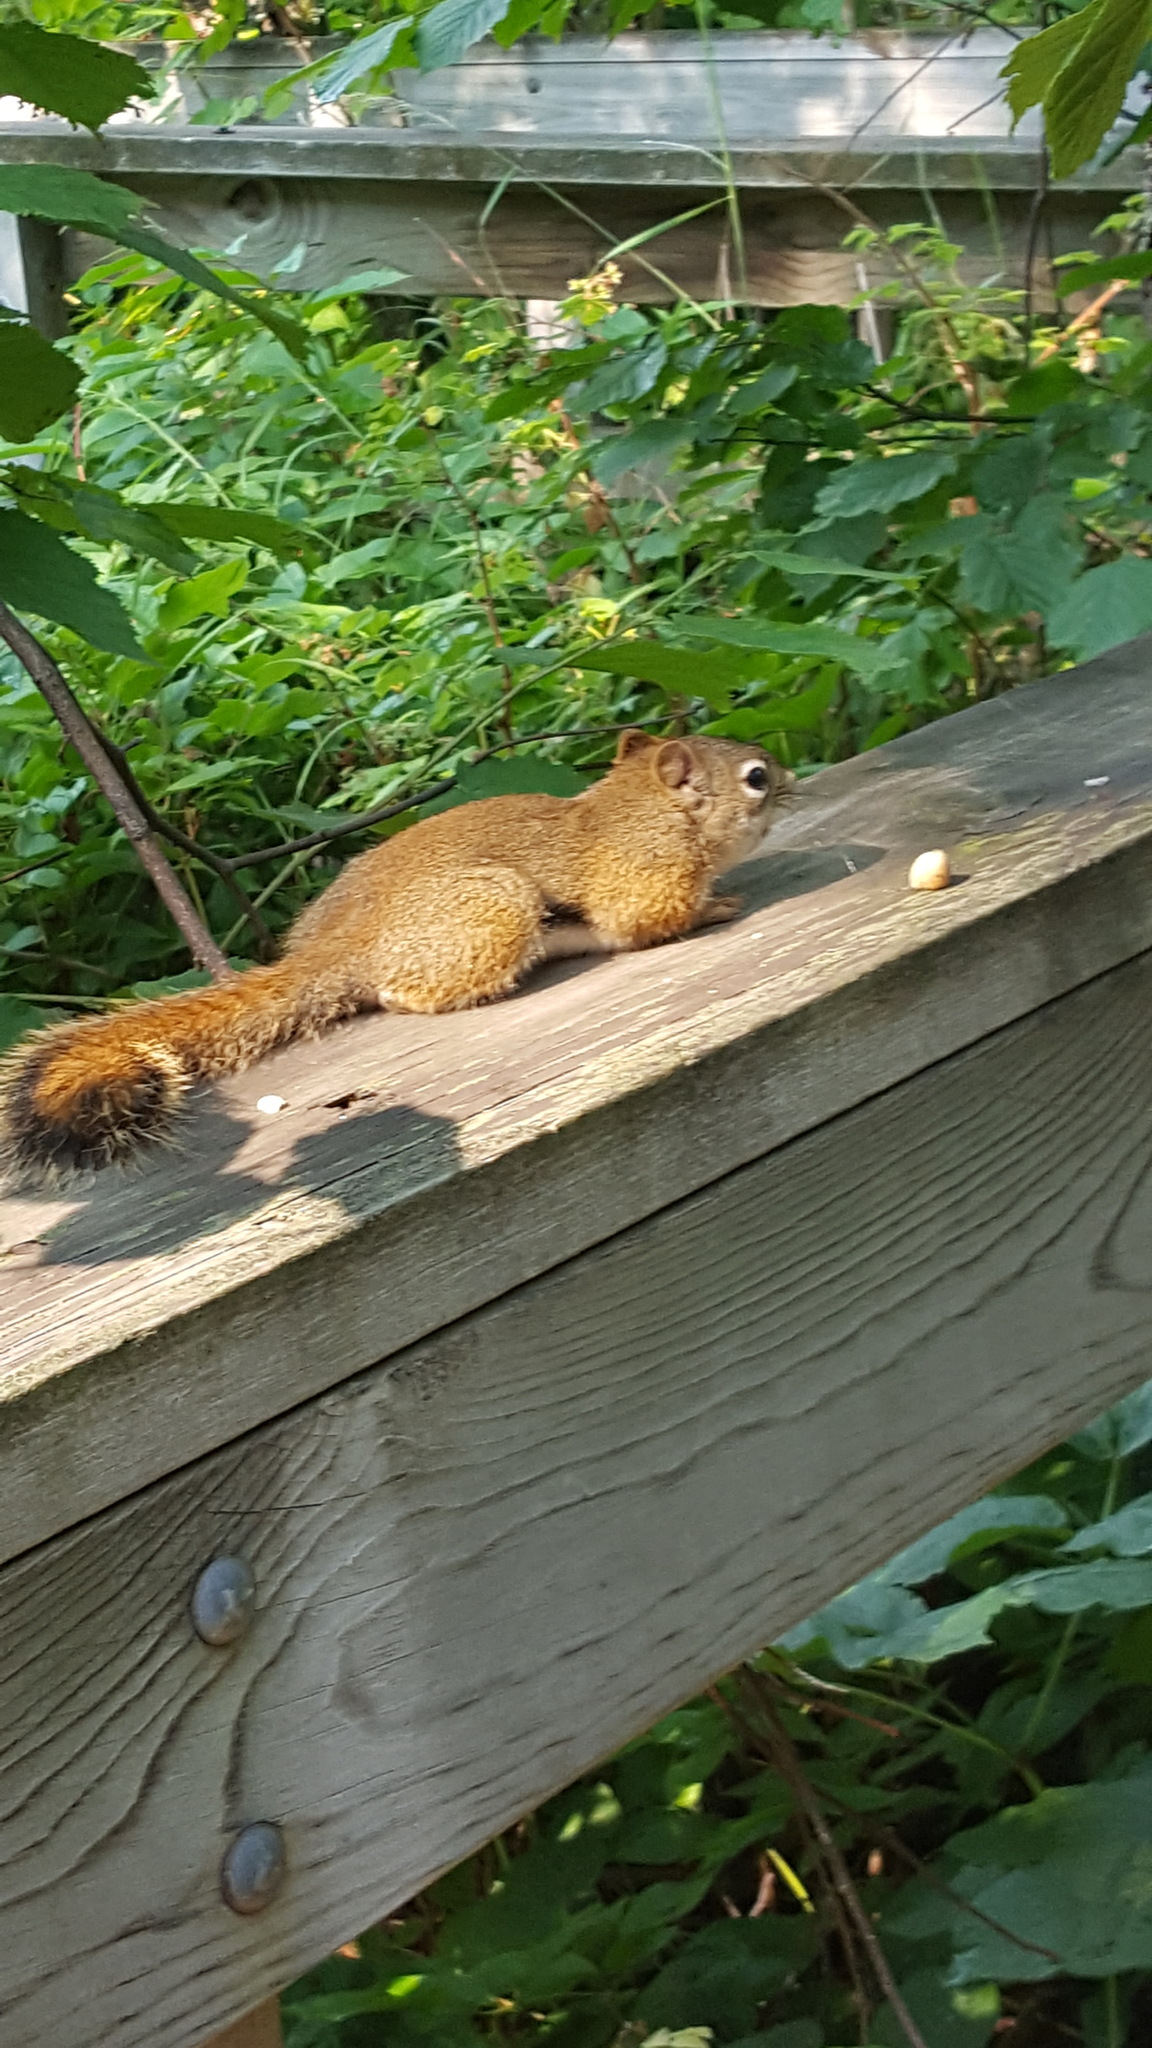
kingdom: Animalia
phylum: Chordata
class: Mammalia
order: Rodentia
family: Sciuridae
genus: Tamiasciurus
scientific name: Tamiasciurus hudsonicus
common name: Red squirrel
